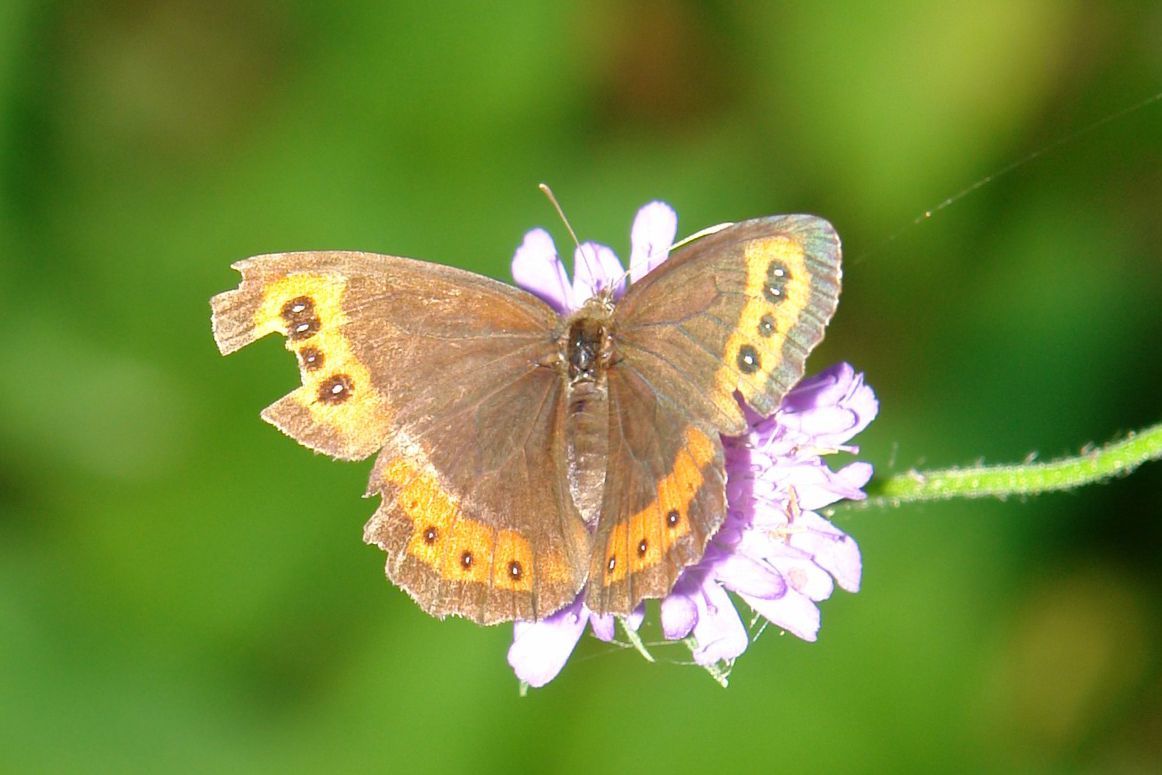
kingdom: Animalia
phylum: Arthropoda
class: Insecta
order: Lepidoptera
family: Nymphalidae
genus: Erebia
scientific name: Erebia ligea
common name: Arran brown
